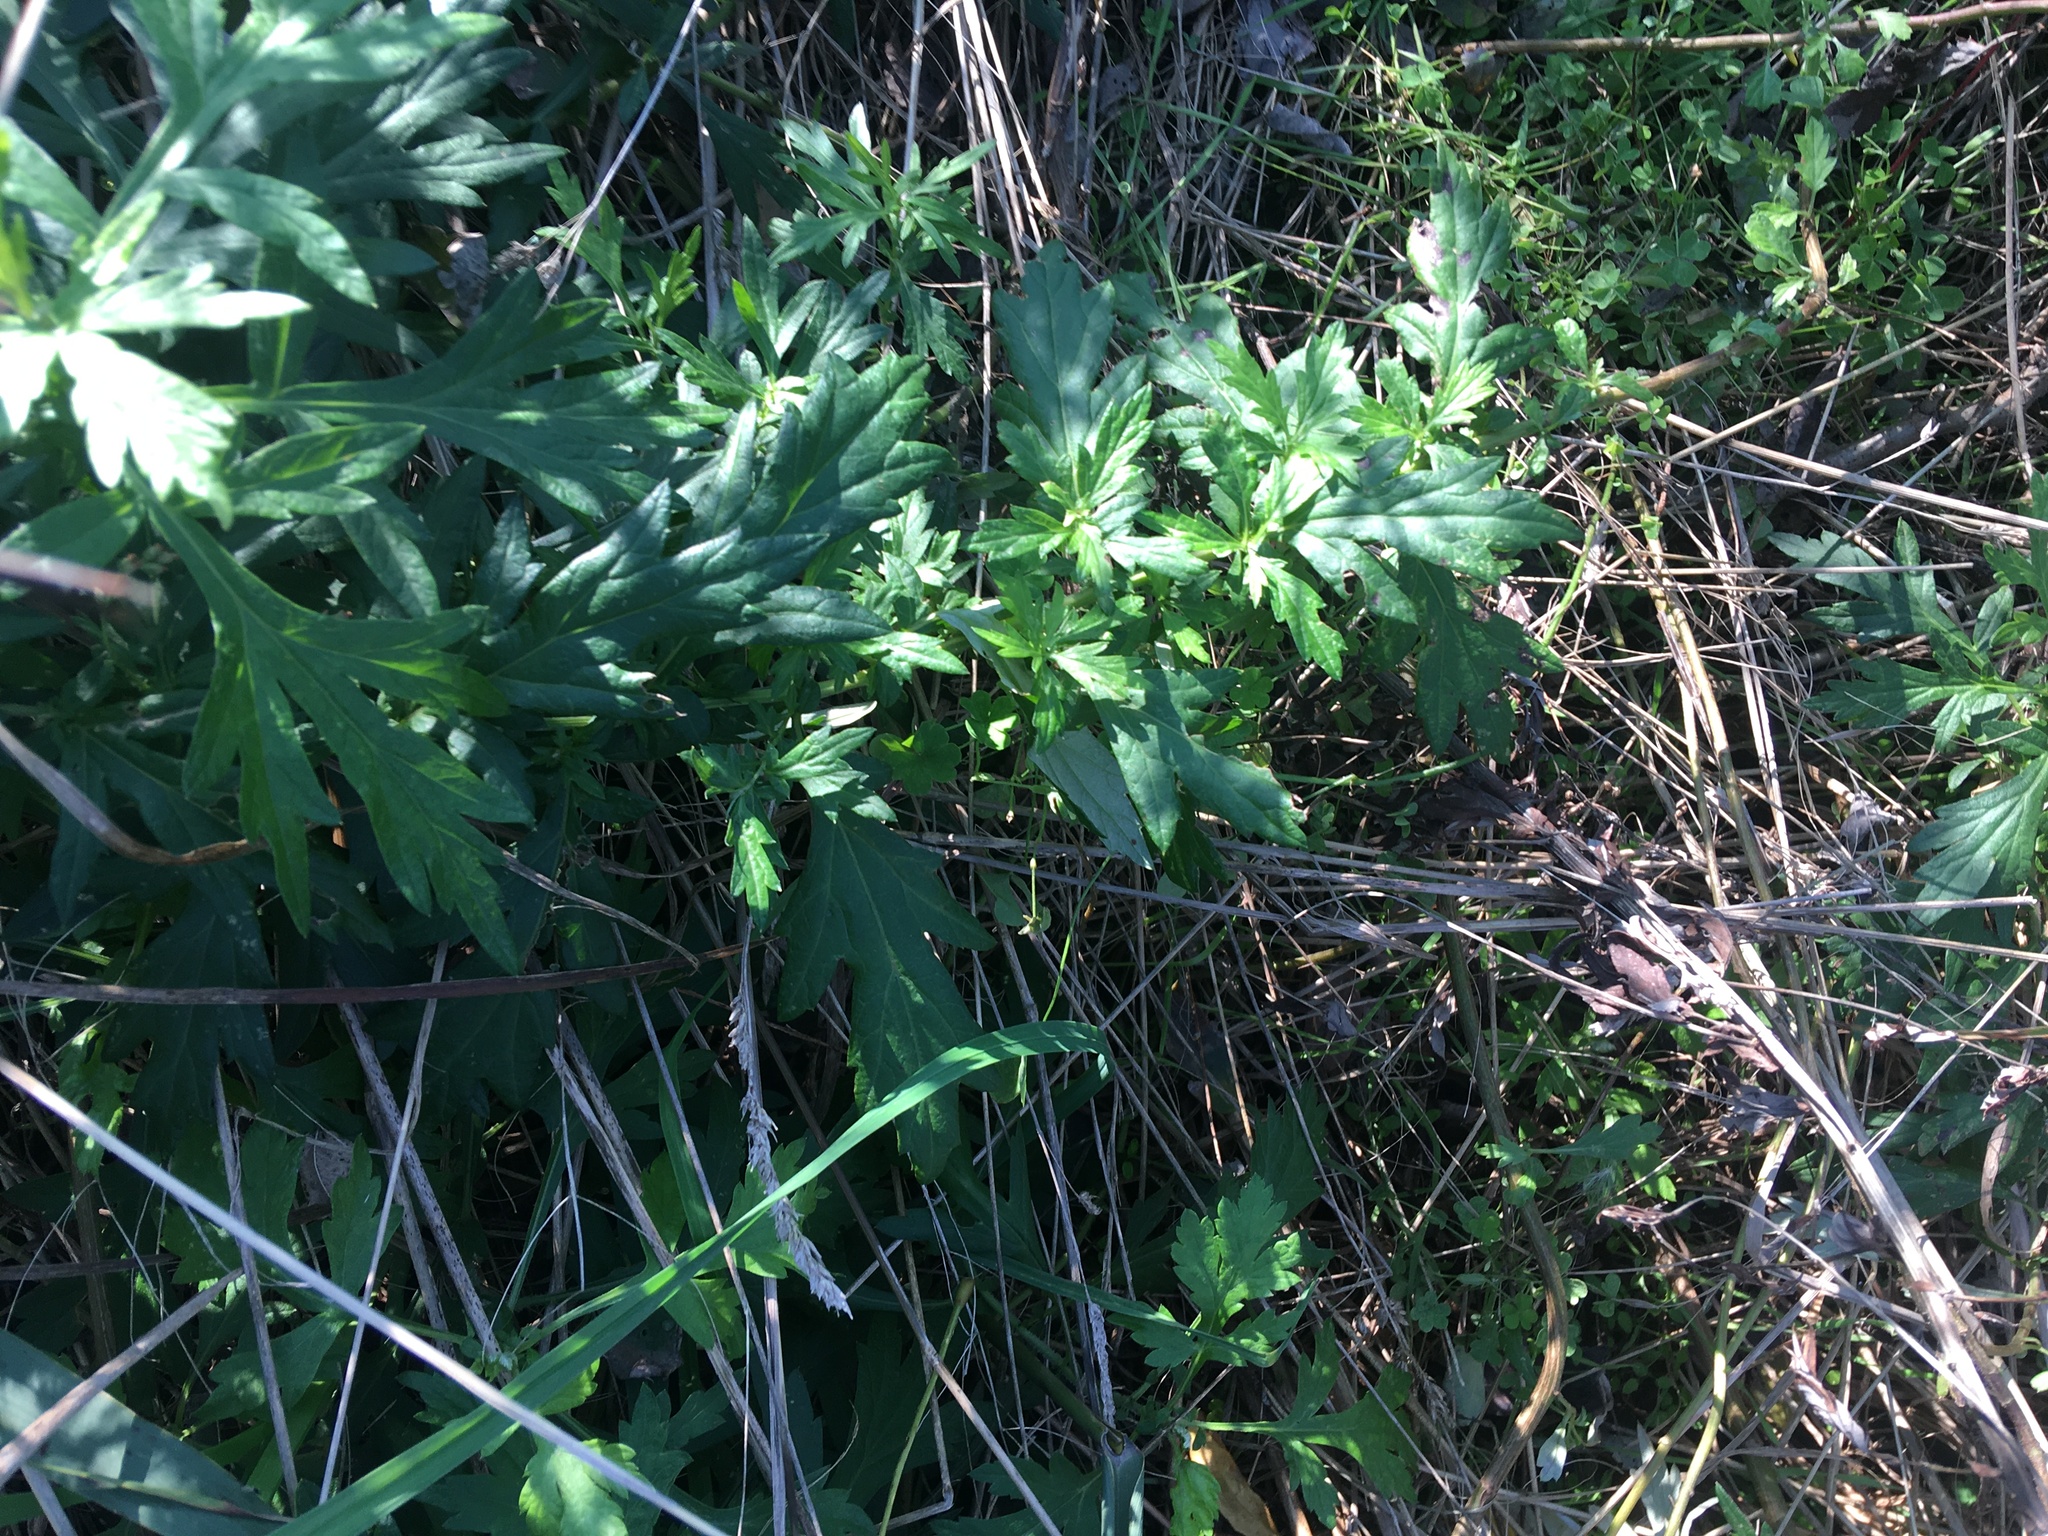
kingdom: Plantae
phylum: Tracheophyta
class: Magnoliopsida
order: Asterales
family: Asteraceae
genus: Artemisia
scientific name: Artemisia vulgaris
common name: Mugwort
